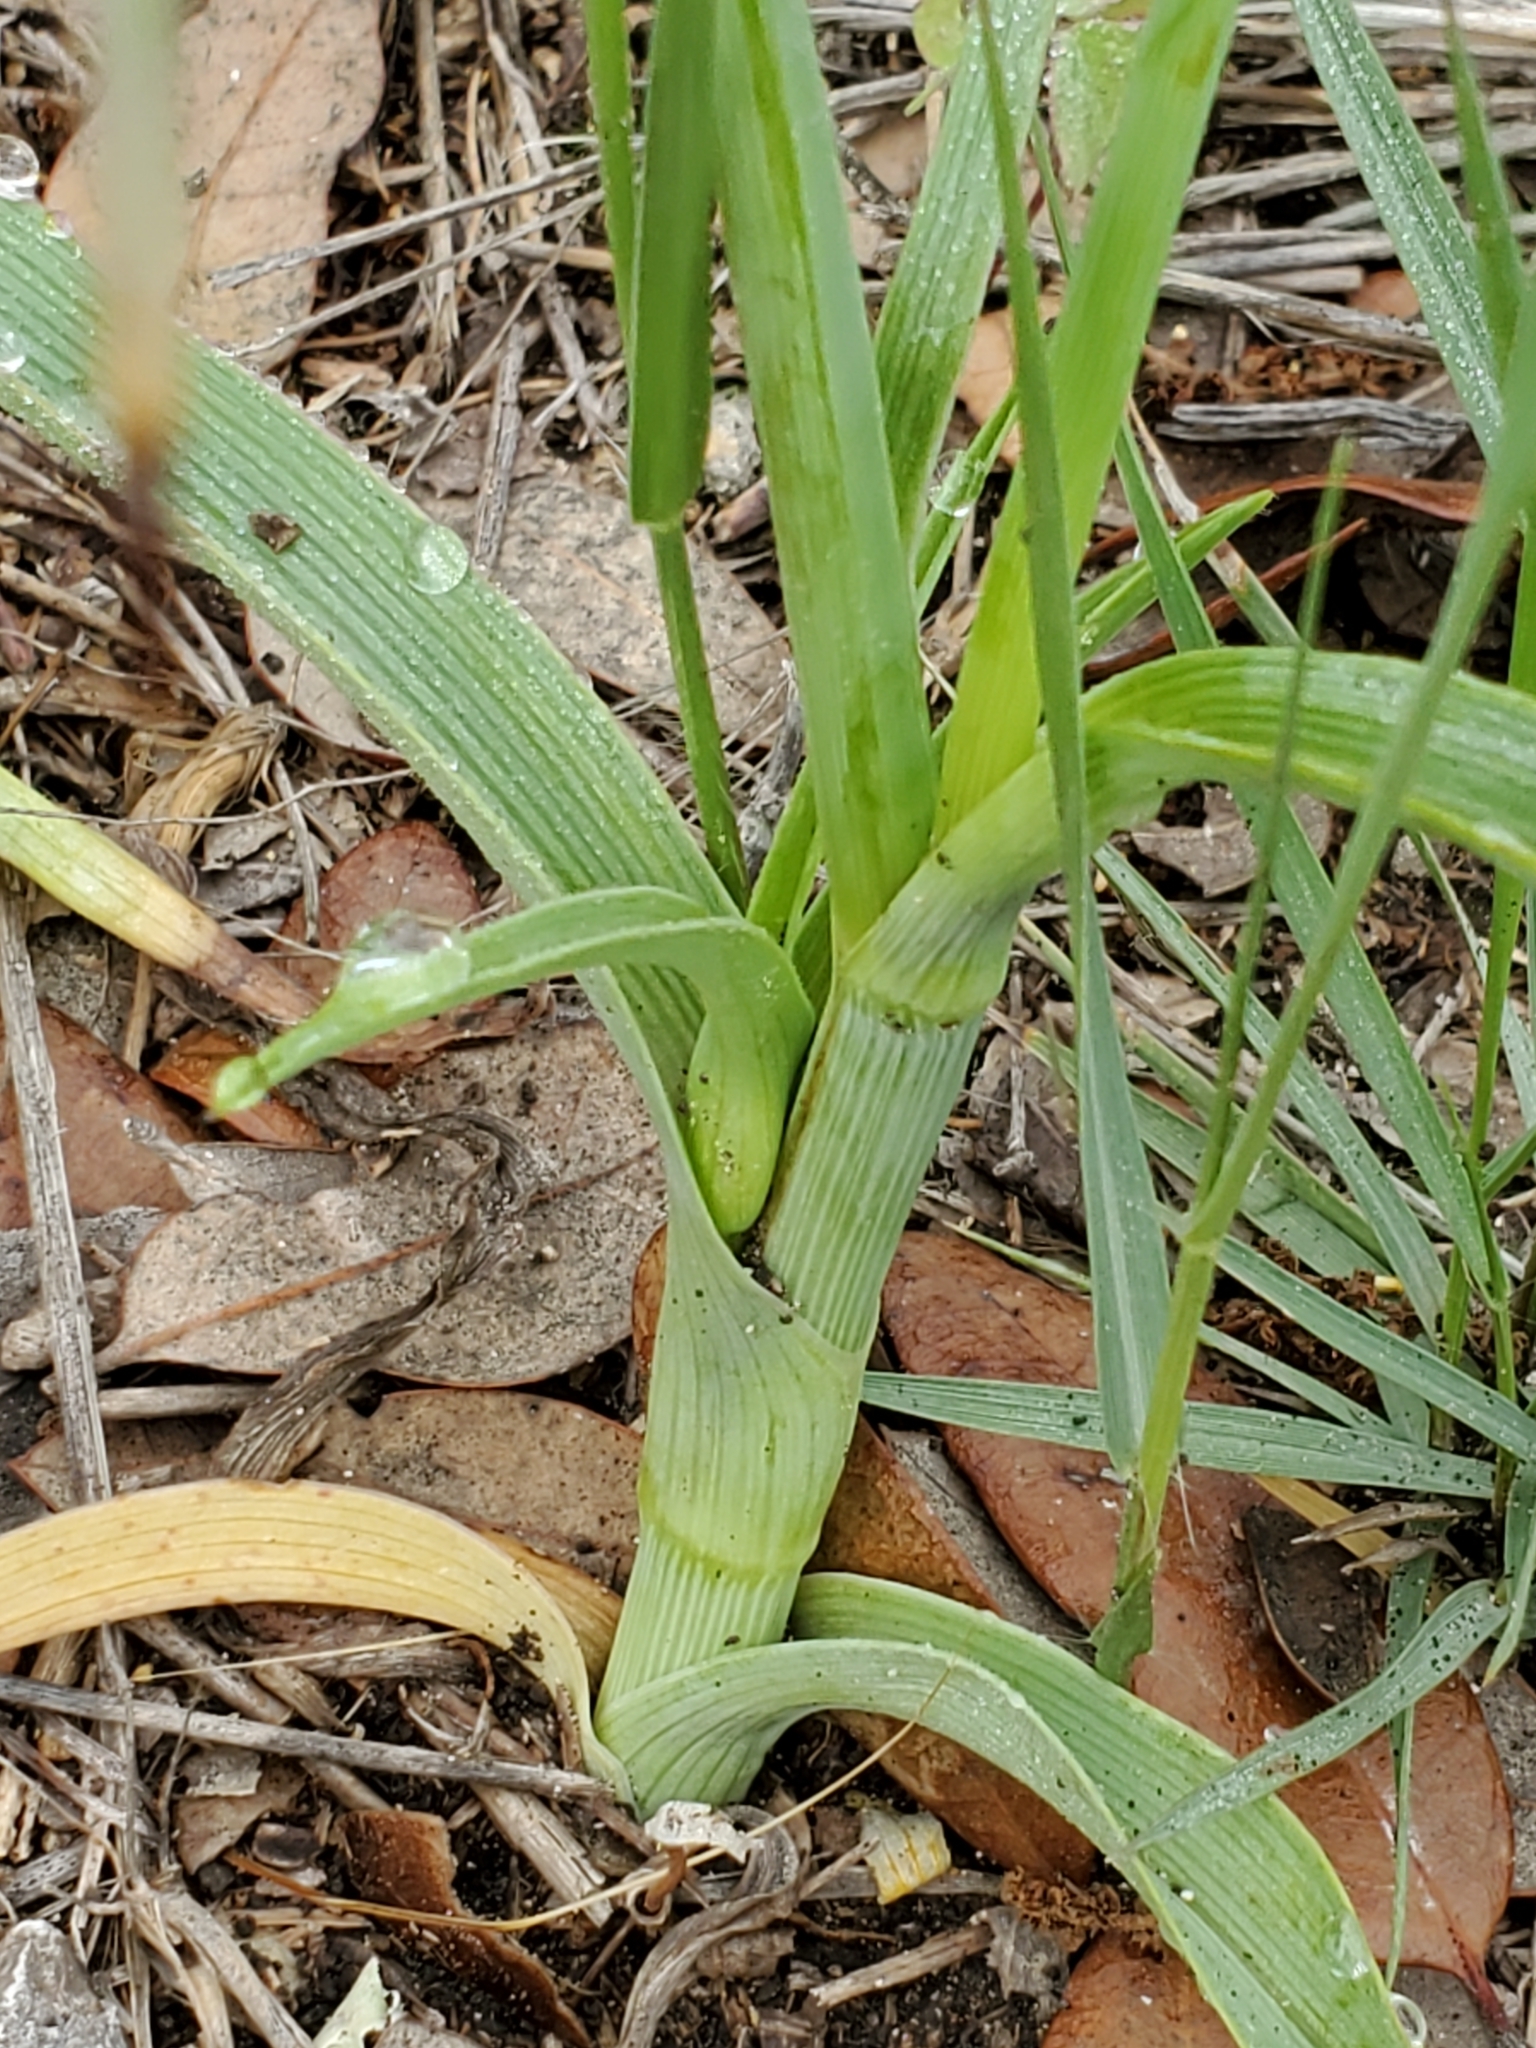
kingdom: Plantae
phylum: Tracheophyta
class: Liliopsida
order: Commelinales
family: Commelinaceae
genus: Tradescantia
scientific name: Tradescantia occidentalis
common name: Prairie spiderwort
